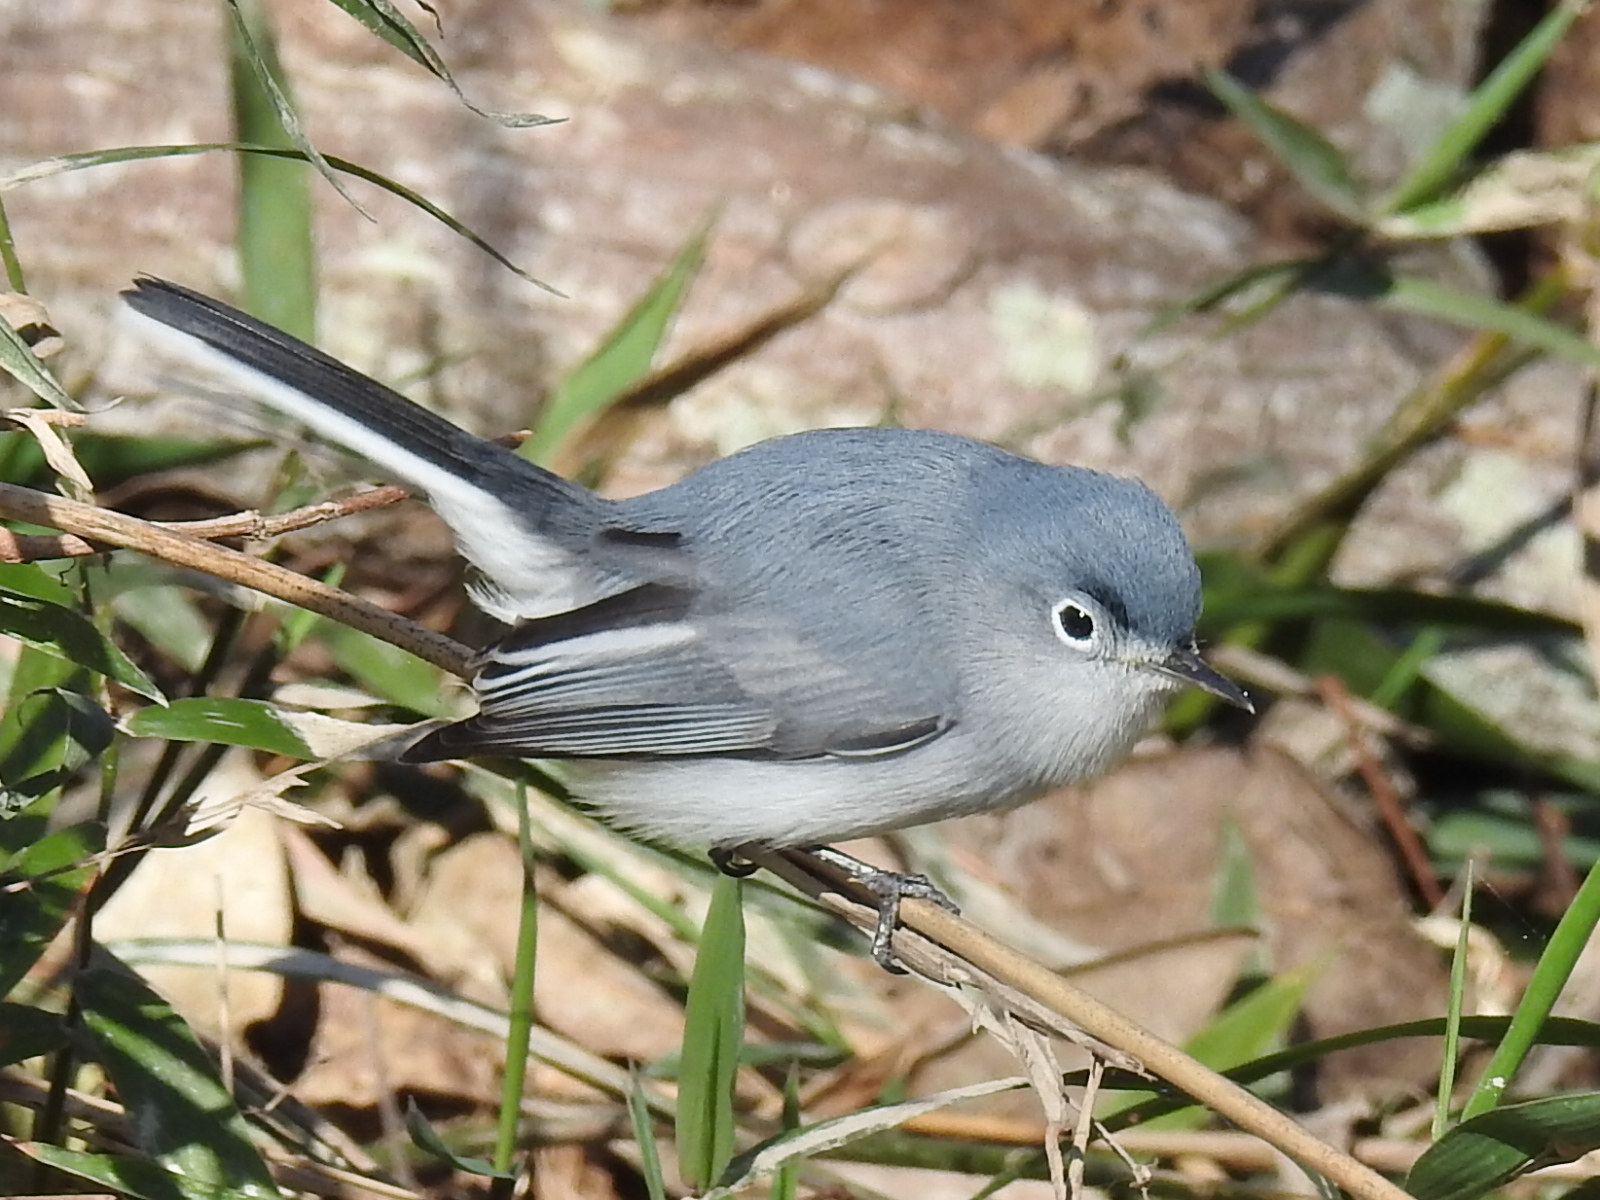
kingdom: Animalia
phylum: Chordata
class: Aves
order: Passeriformes
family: Polioptilidae
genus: Polioptila
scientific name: Polioptila caerulea
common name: Blue-gray gnatcatcher
